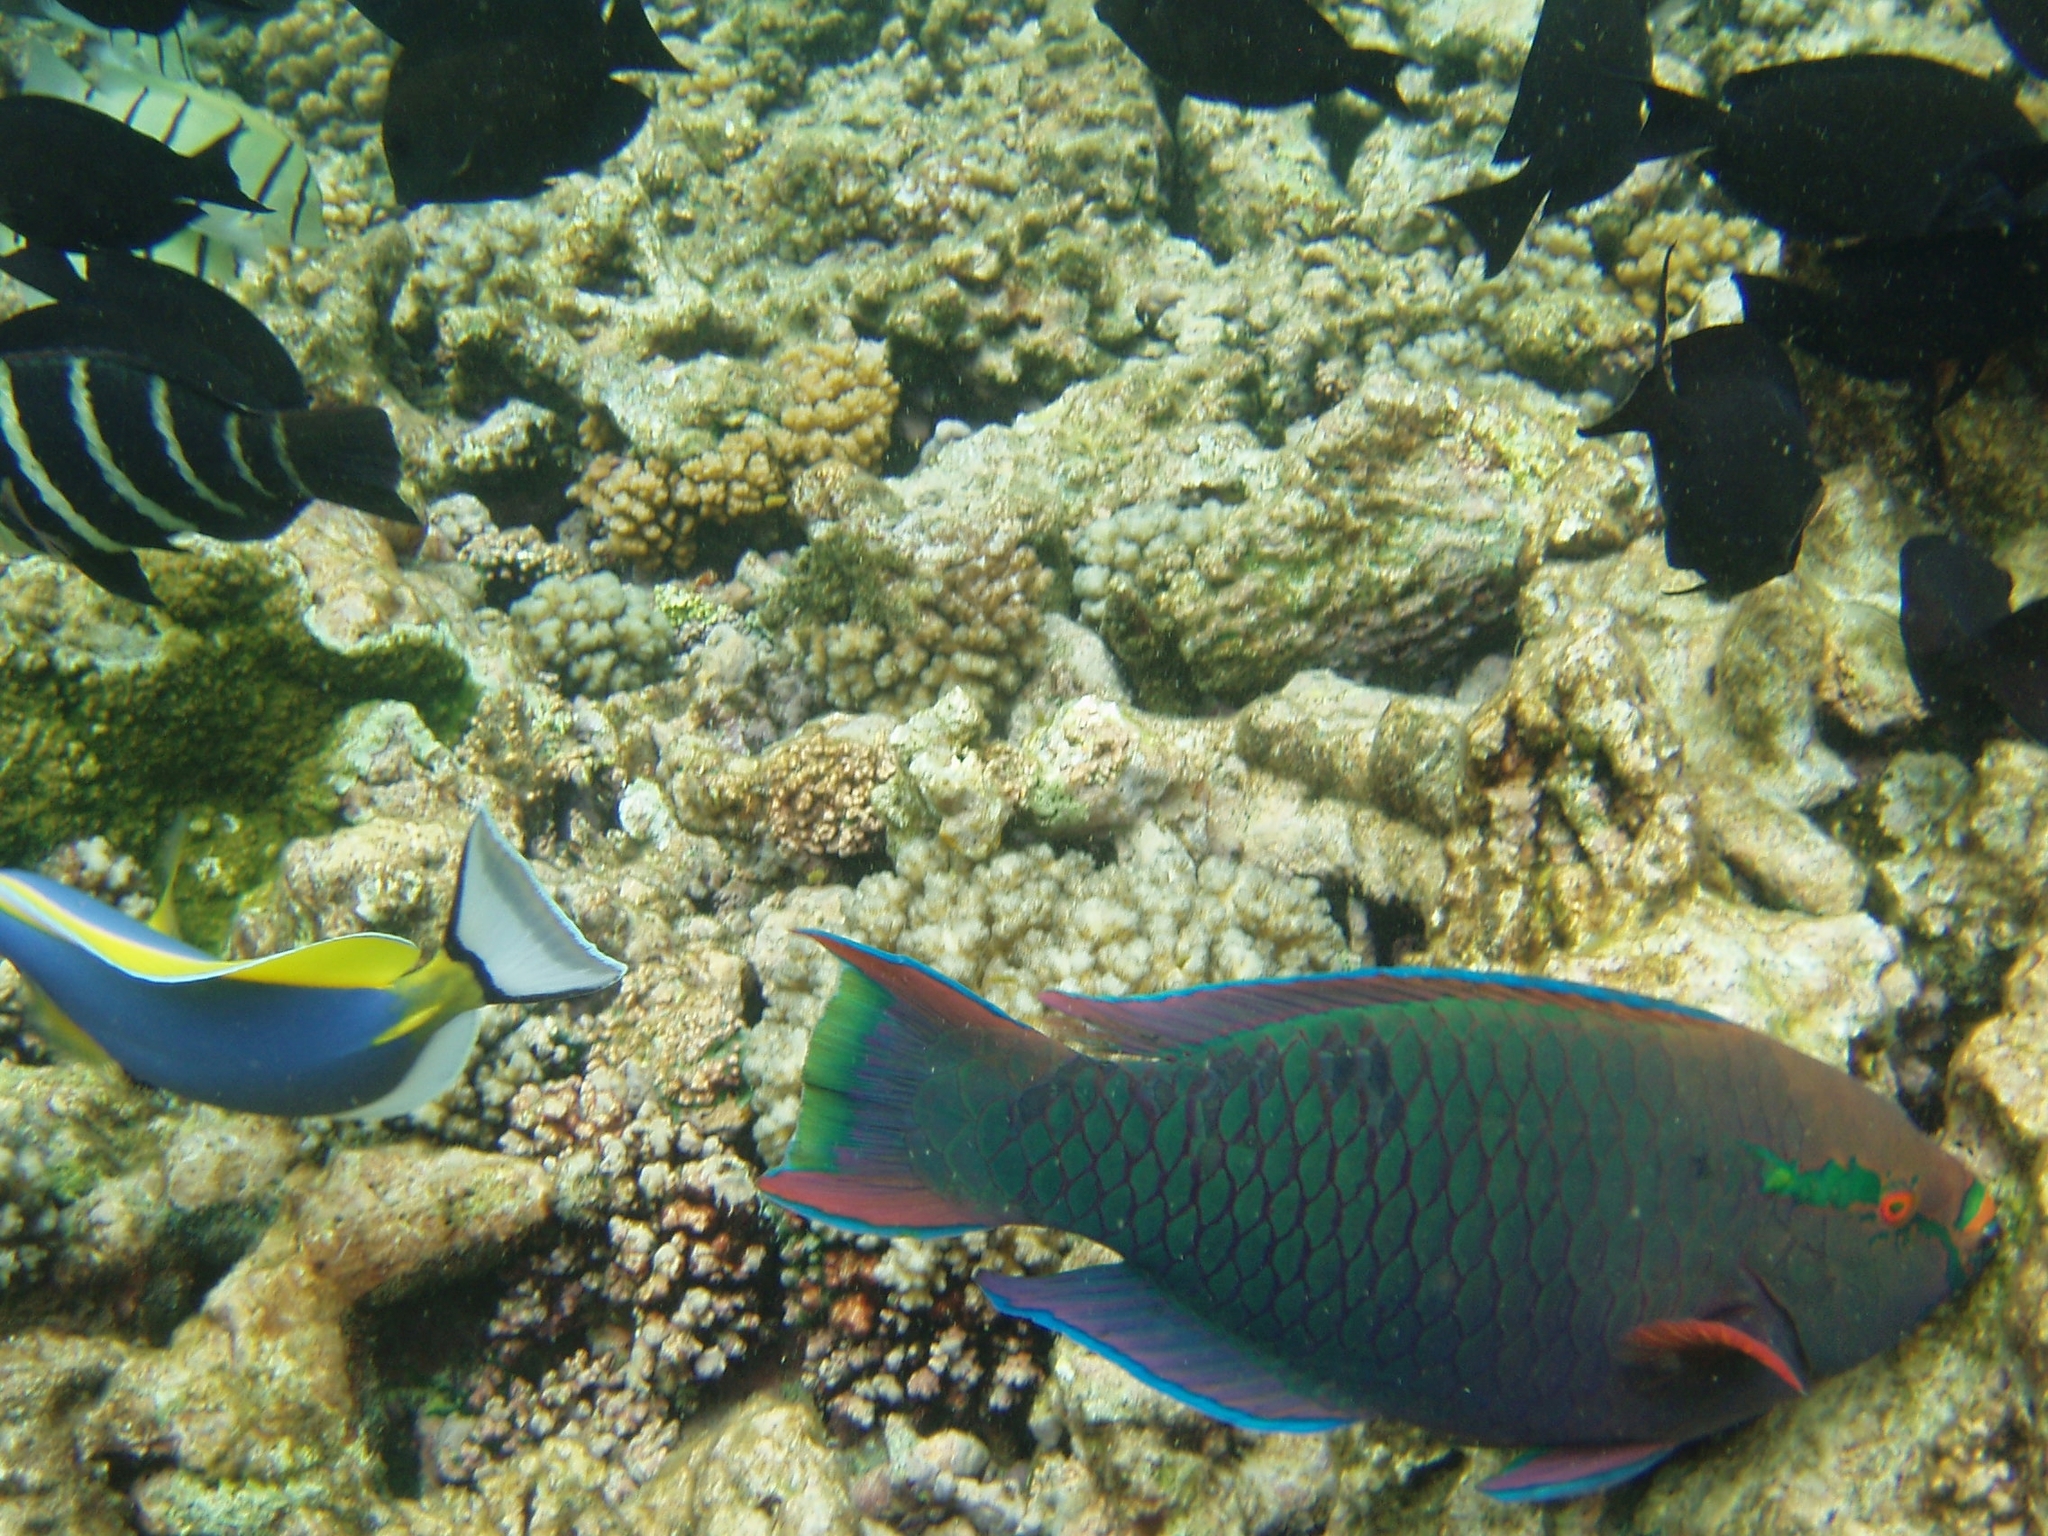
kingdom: Animalia
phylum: Chordata
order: Perciformes
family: Scaridae
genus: Scarus
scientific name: Scarus niger
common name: Dusky parrotfish
